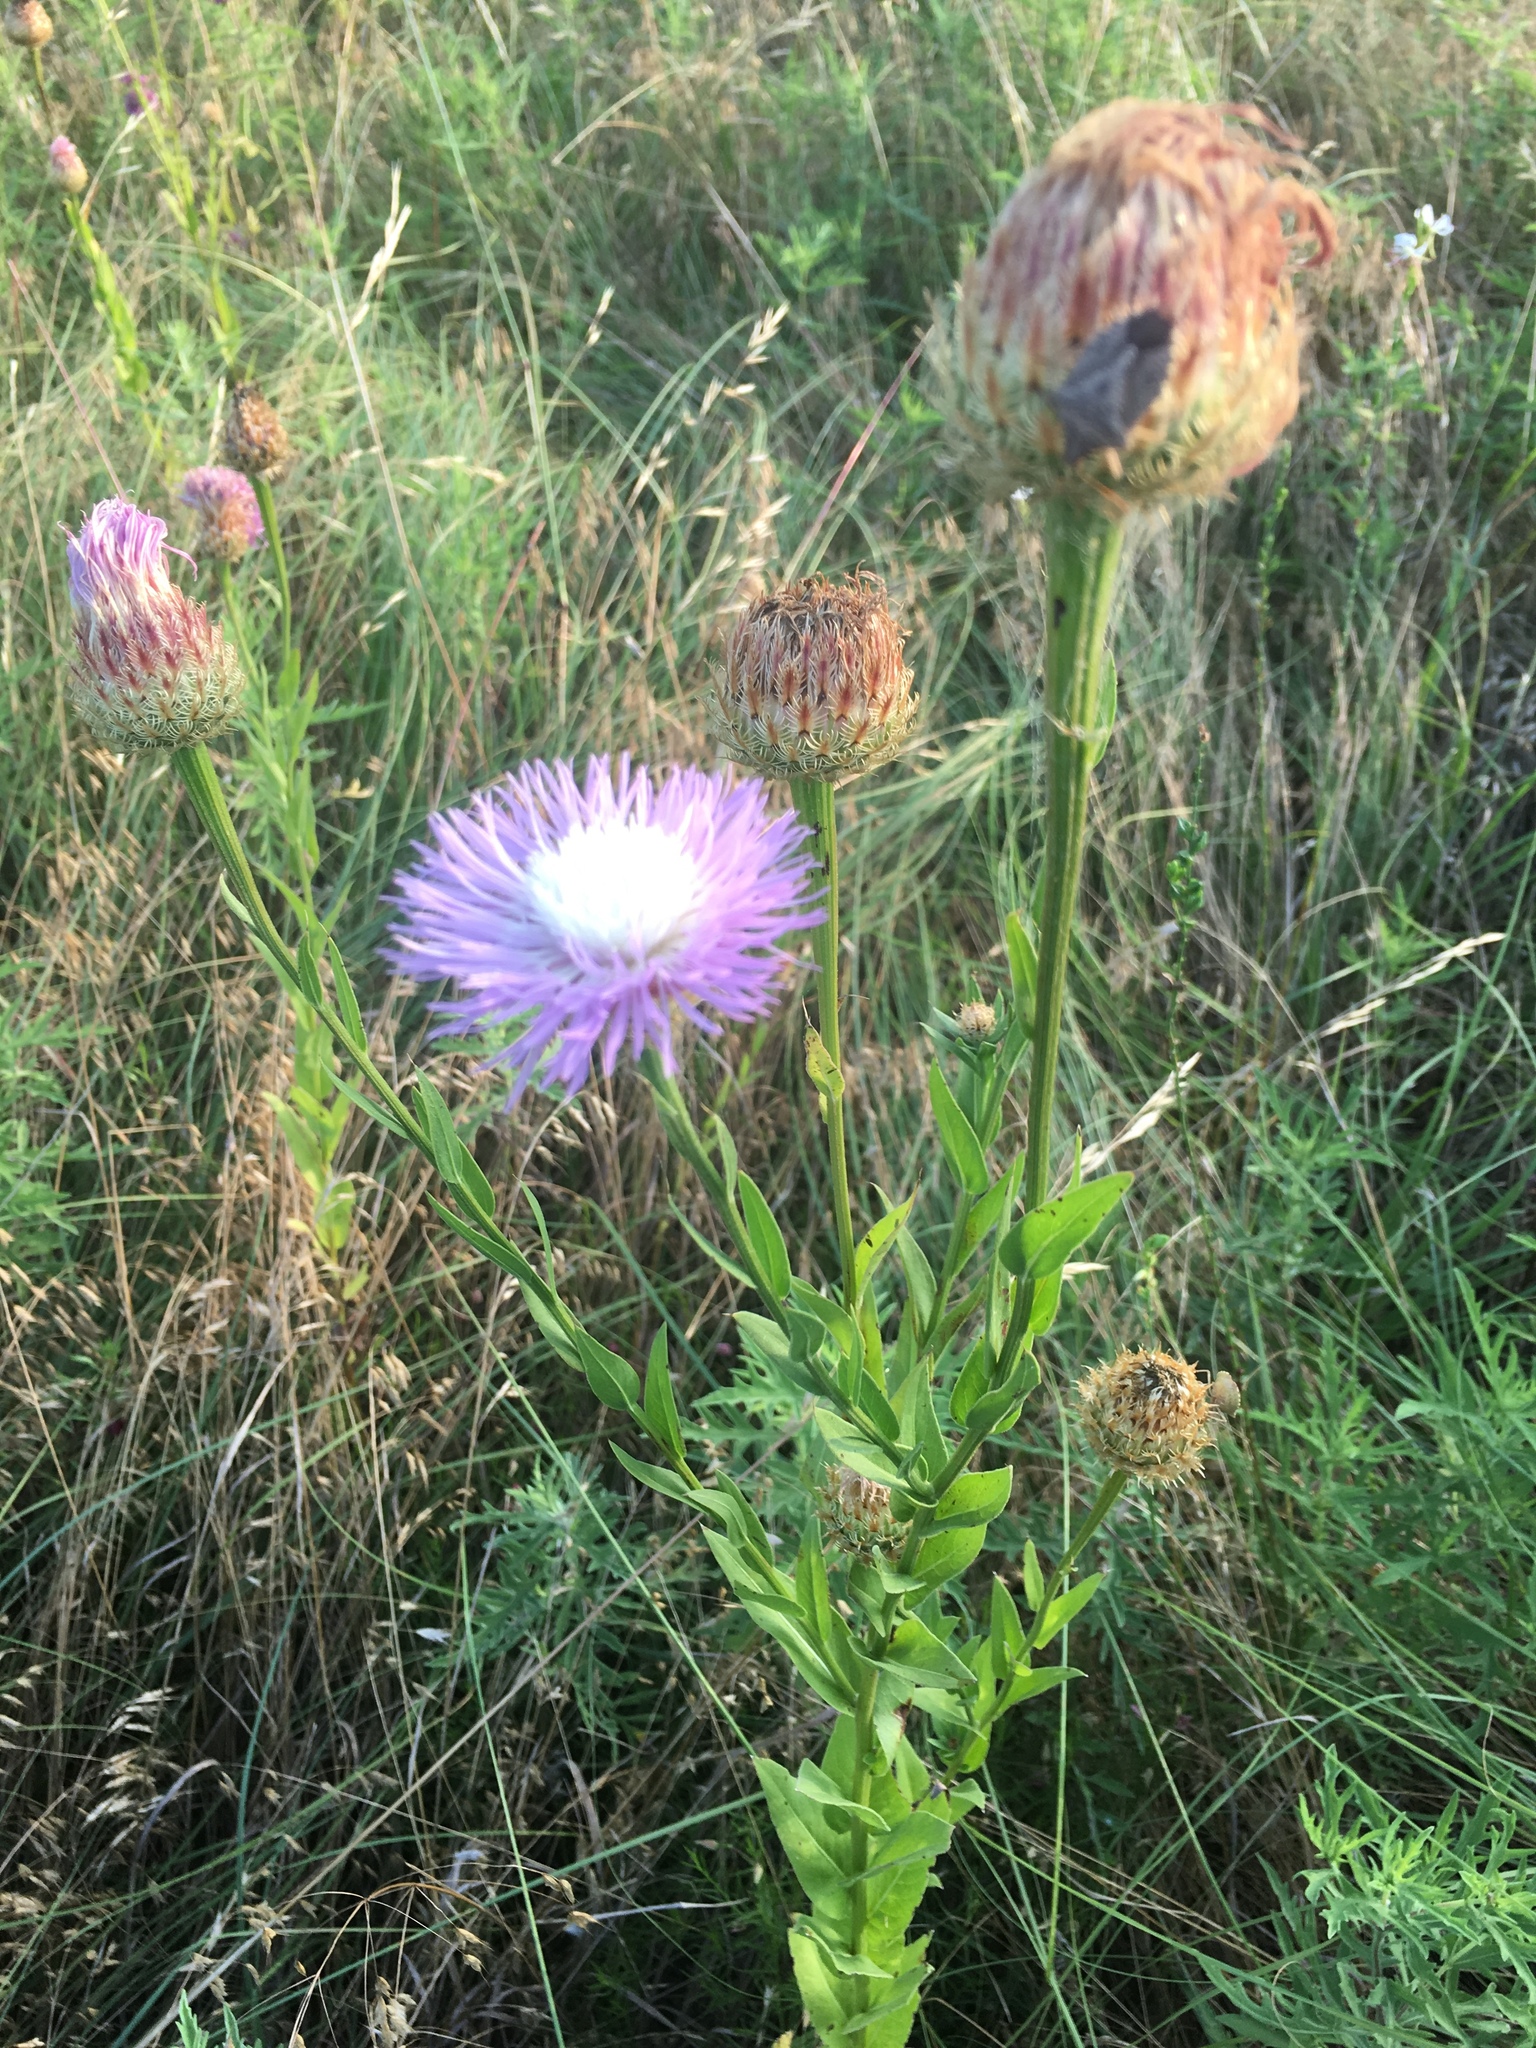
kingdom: Plantae
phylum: Tracheophyta
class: Magnoliopsida
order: Asterales
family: Asteraceae
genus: Plectocephalus
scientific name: Plectocephalus americanus
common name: American basket-flower
